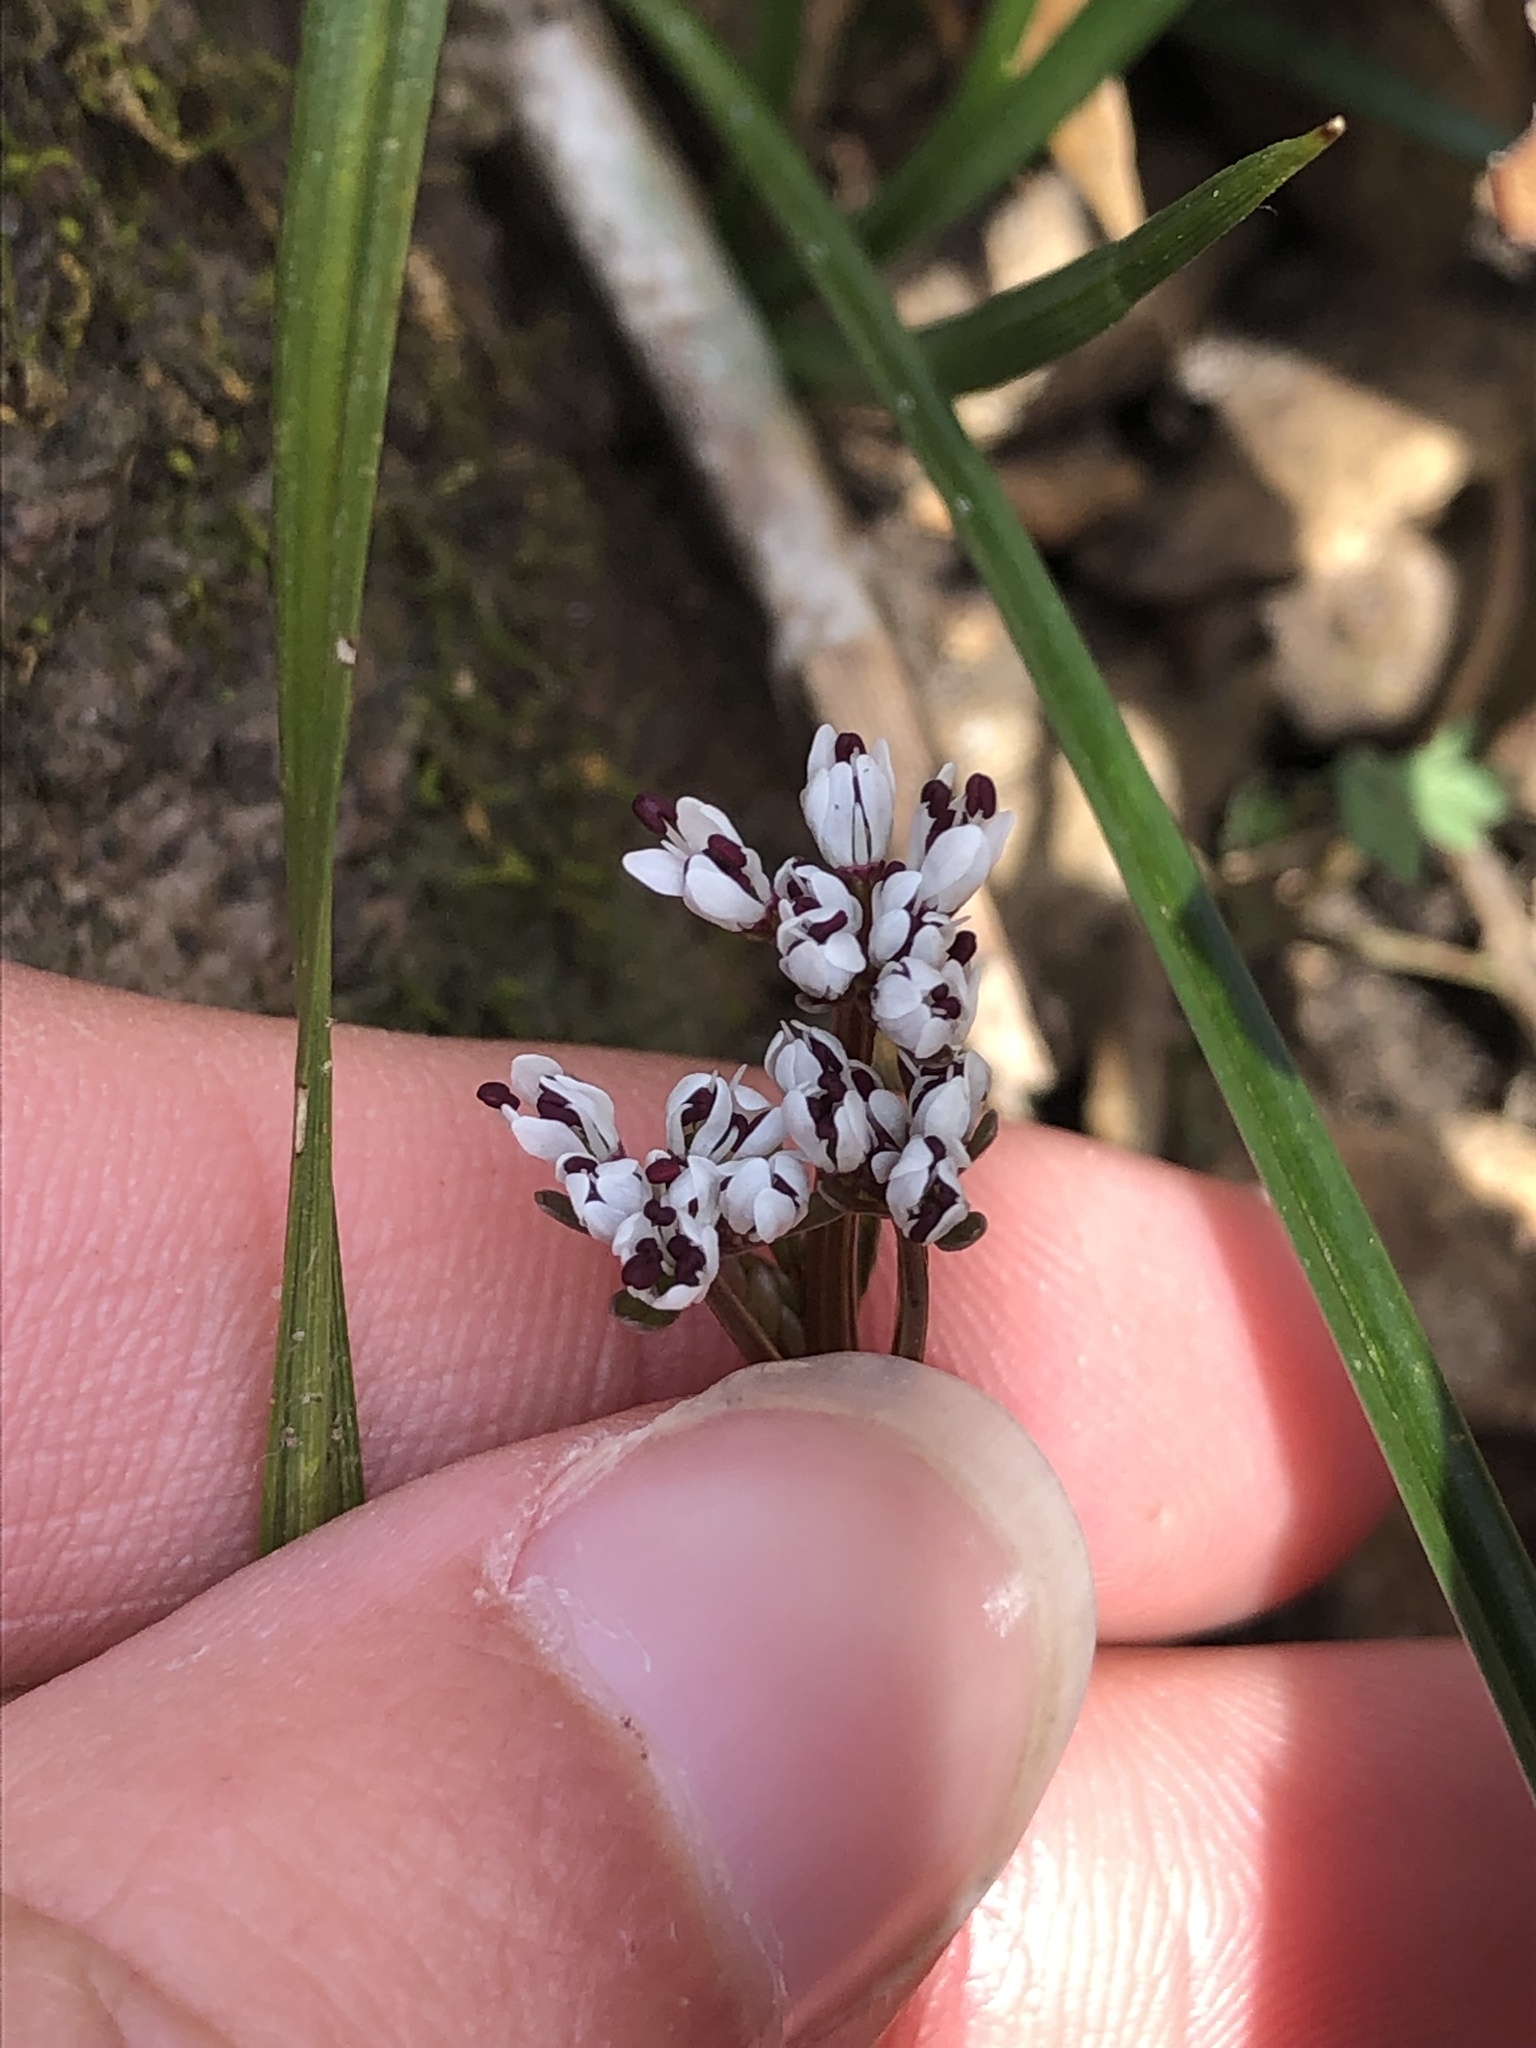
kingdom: Plantae
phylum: Tracheophyta
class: Magnoliopsida
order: Apiales
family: Apiaceae
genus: Erigenia
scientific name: Erigenia bulbosa
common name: Pepper-and-salt
